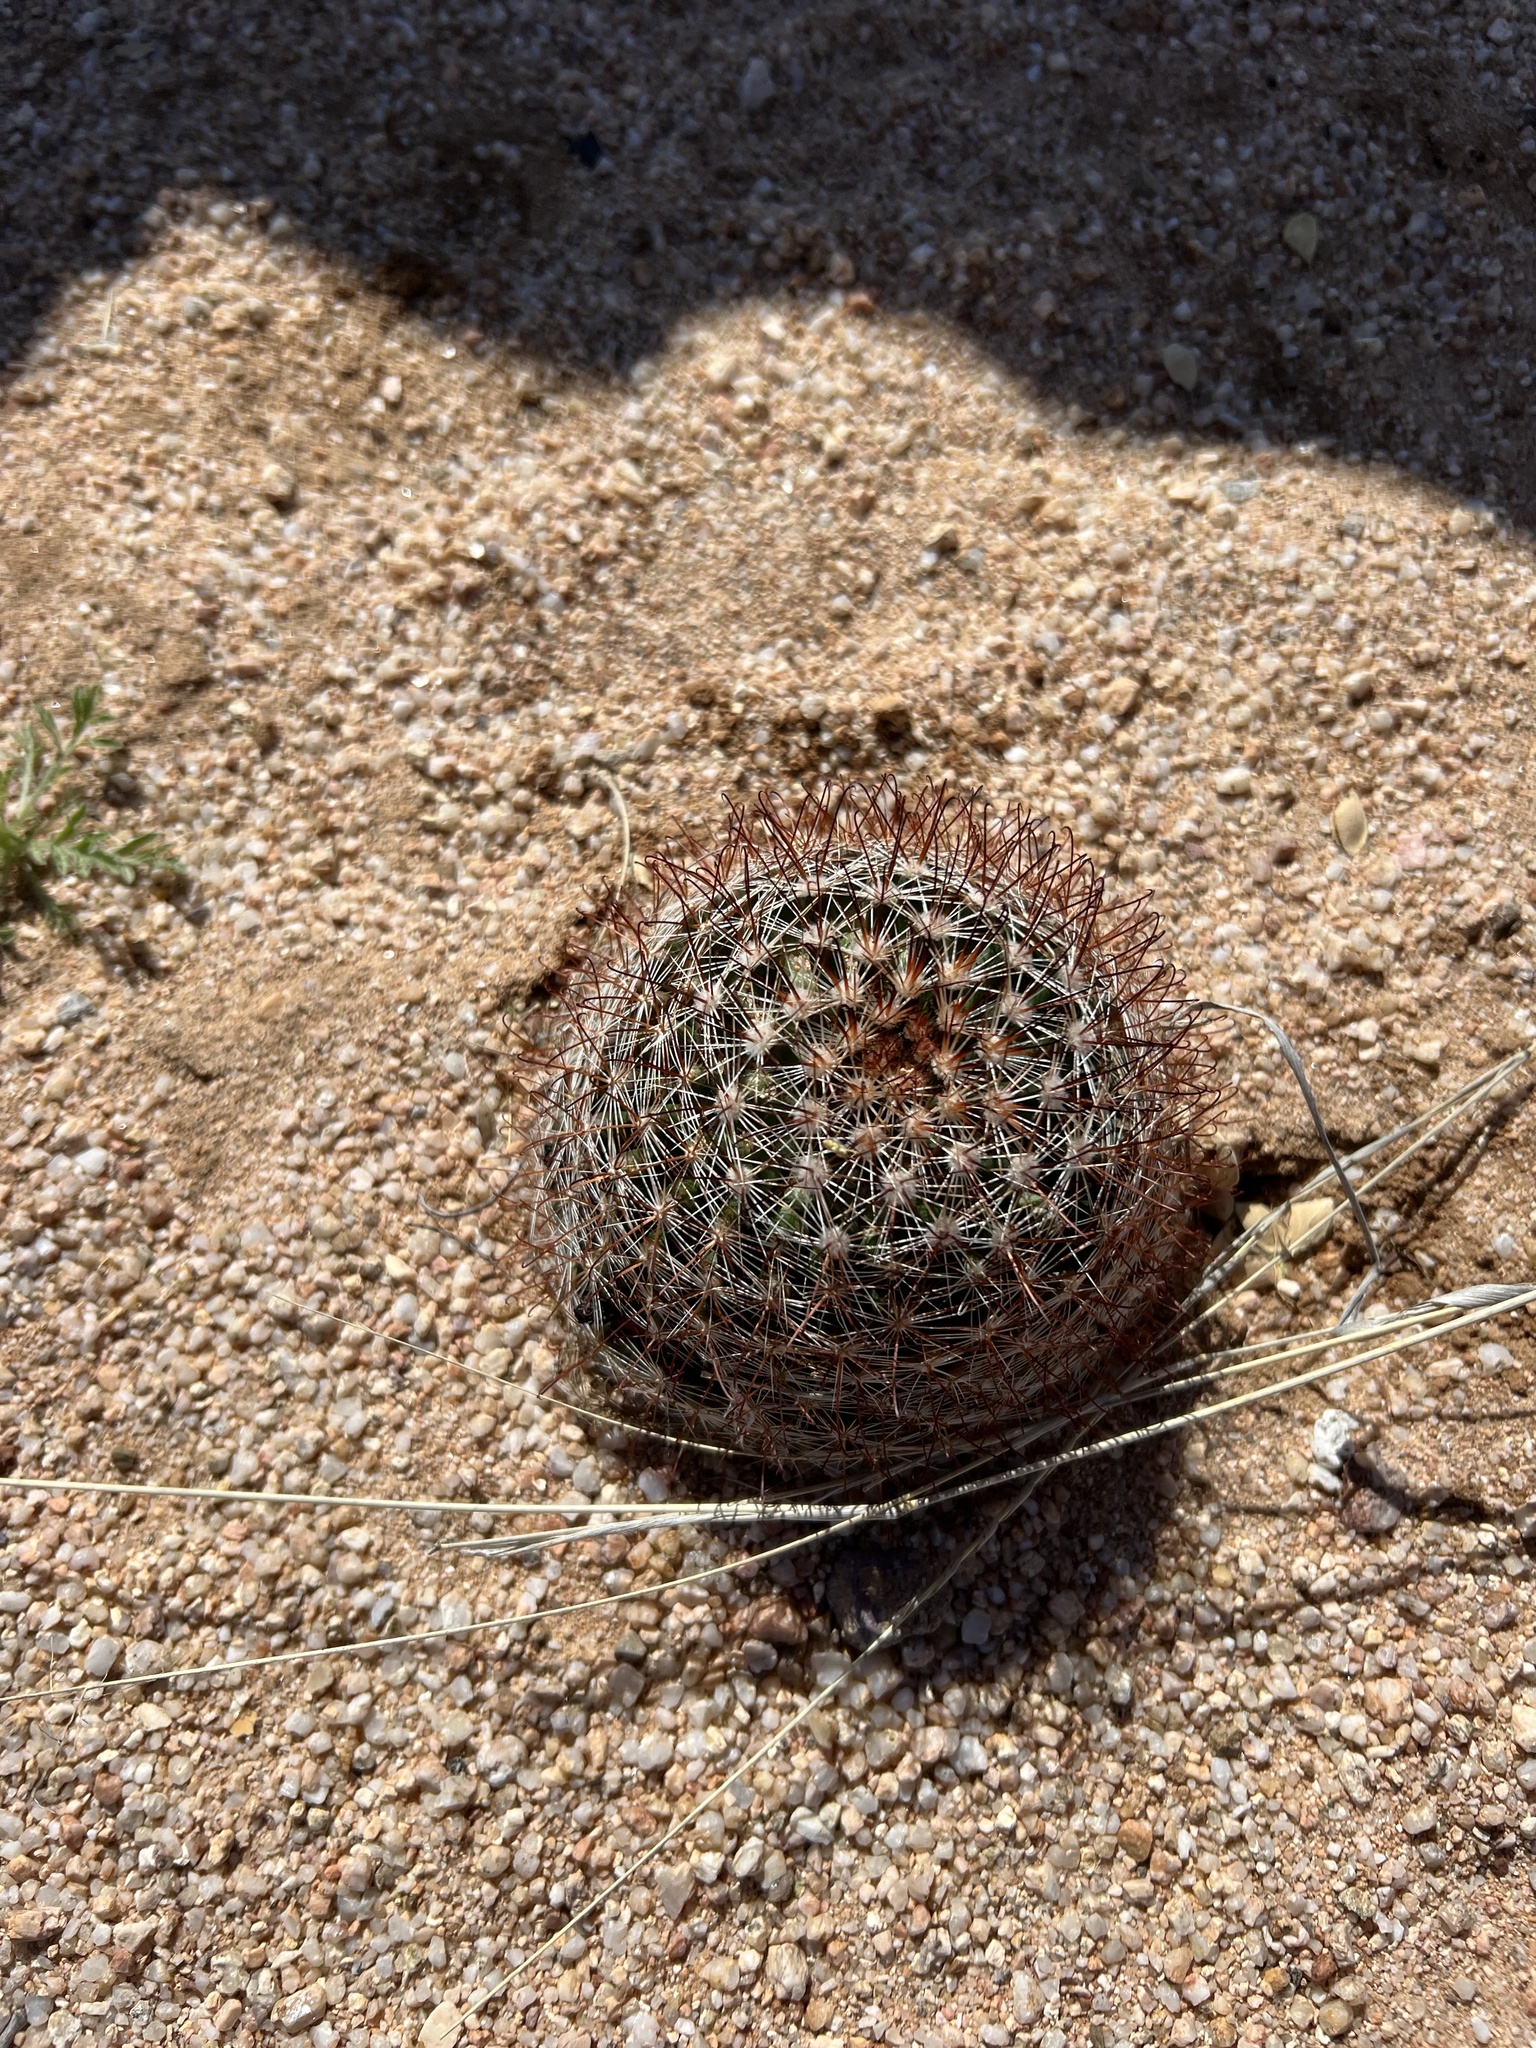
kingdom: Plantae
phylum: Tracheophyta
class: Magnoliopsida
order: Caryophyllales
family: Cactaceae
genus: Cochemiea
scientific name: Cochemiea wrightii
